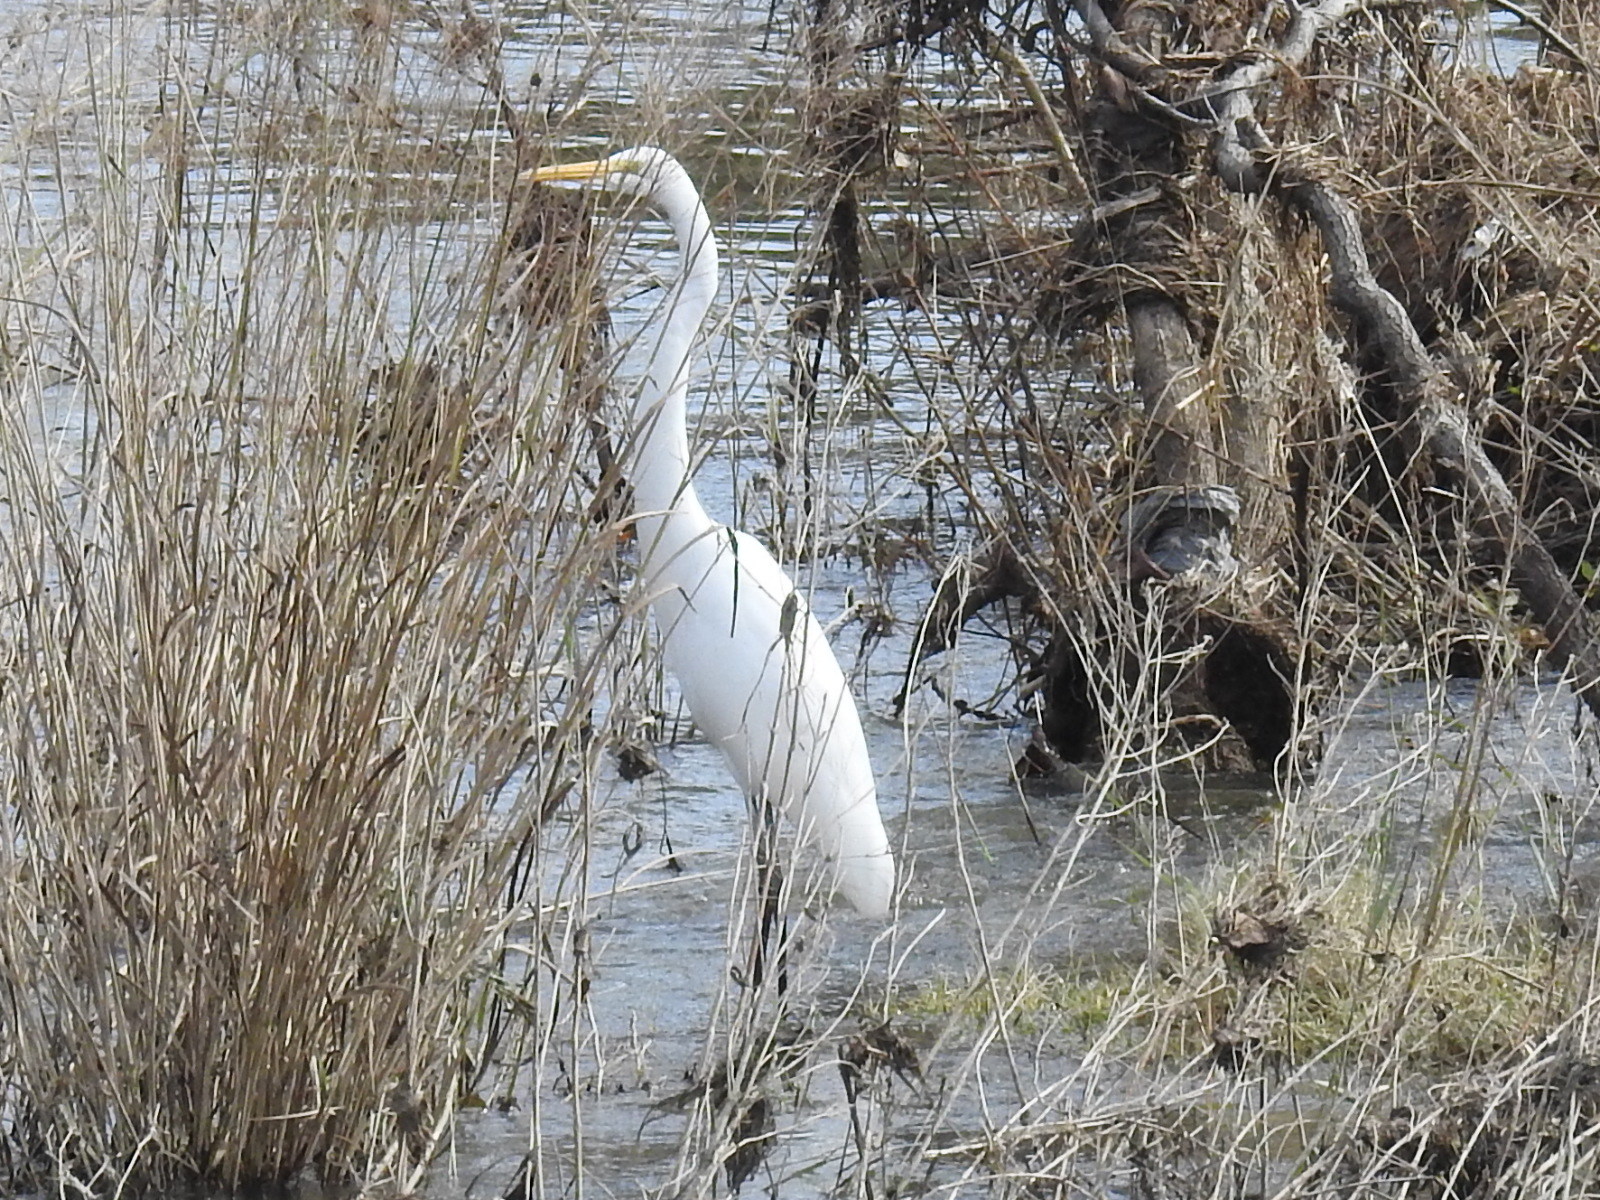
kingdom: Animalia
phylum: Chordata
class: Aves
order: Pelecaniformes
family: Ardeidae
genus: Ardea
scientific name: Ardea alba
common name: Great egret
